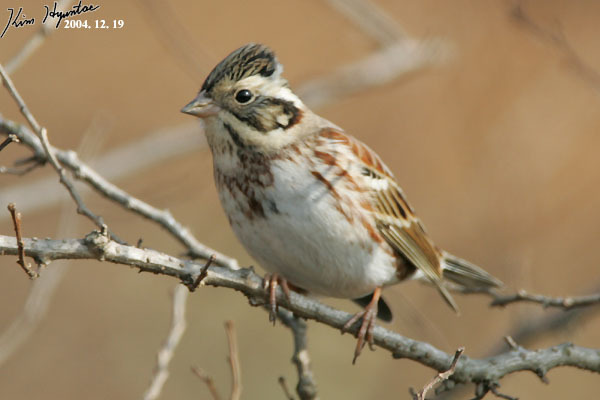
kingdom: Animalia
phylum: Chordata
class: Aves
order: Passeriformes
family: Emberizidae
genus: Emberiza
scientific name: Emberiza rustica
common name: Rustic bunting
